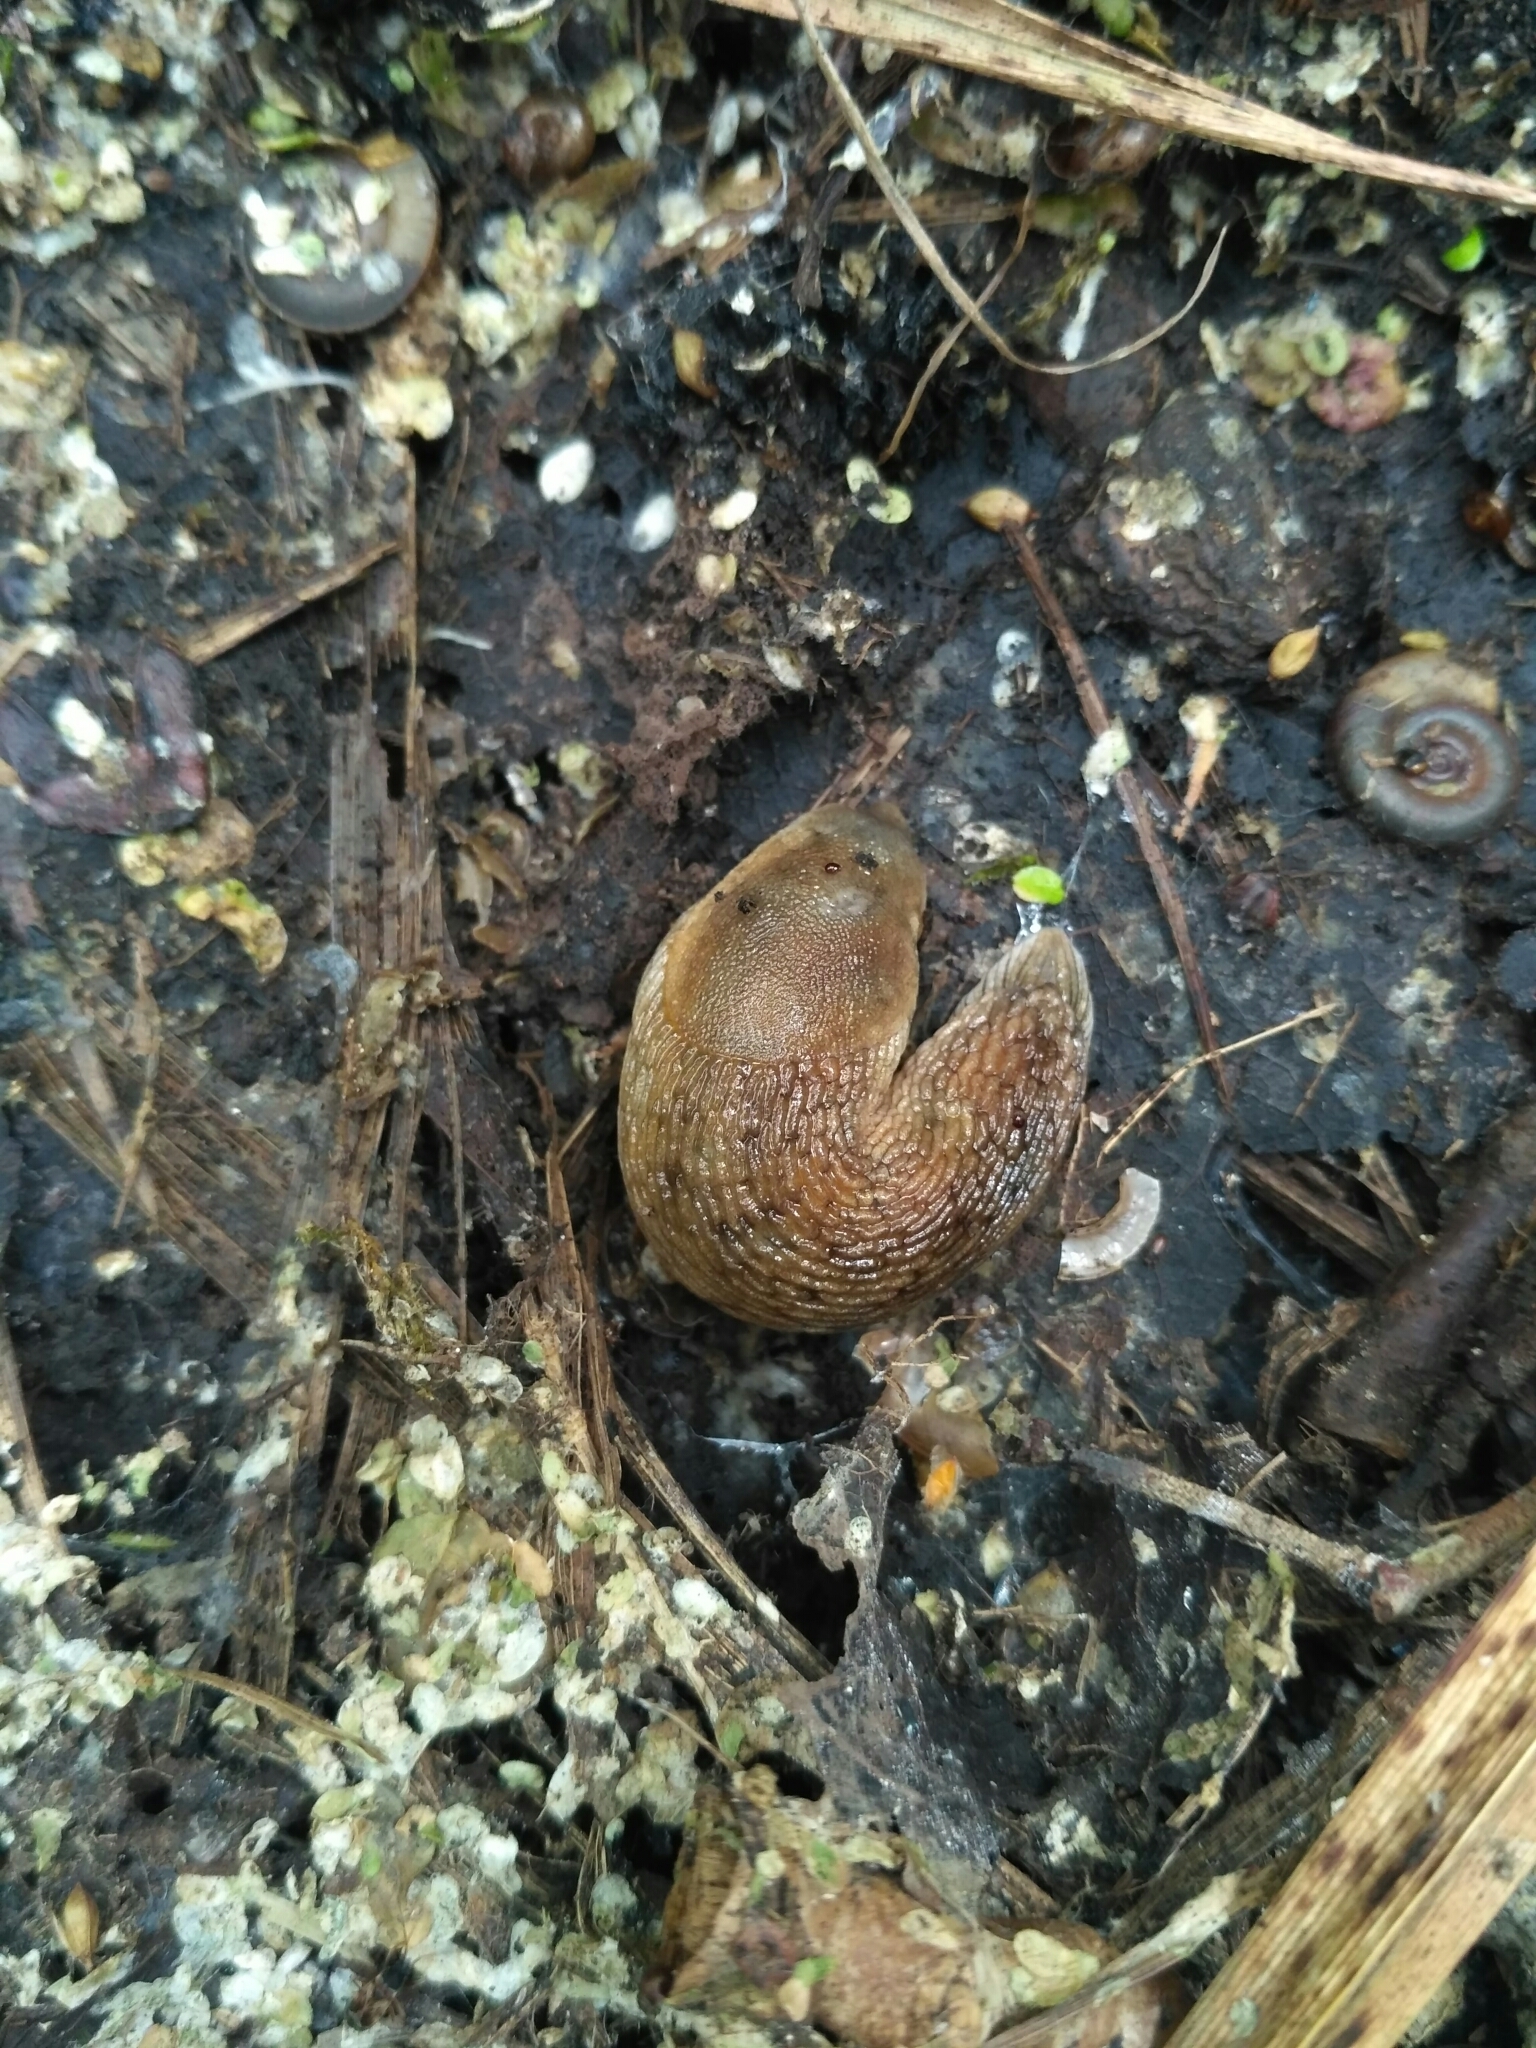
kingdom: Animalia
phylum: Mollusca
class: Gastropoda
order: Stylommatophora
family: Arionidae
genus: Arion
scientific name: Arion fuscus
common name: Northern dusky slug
